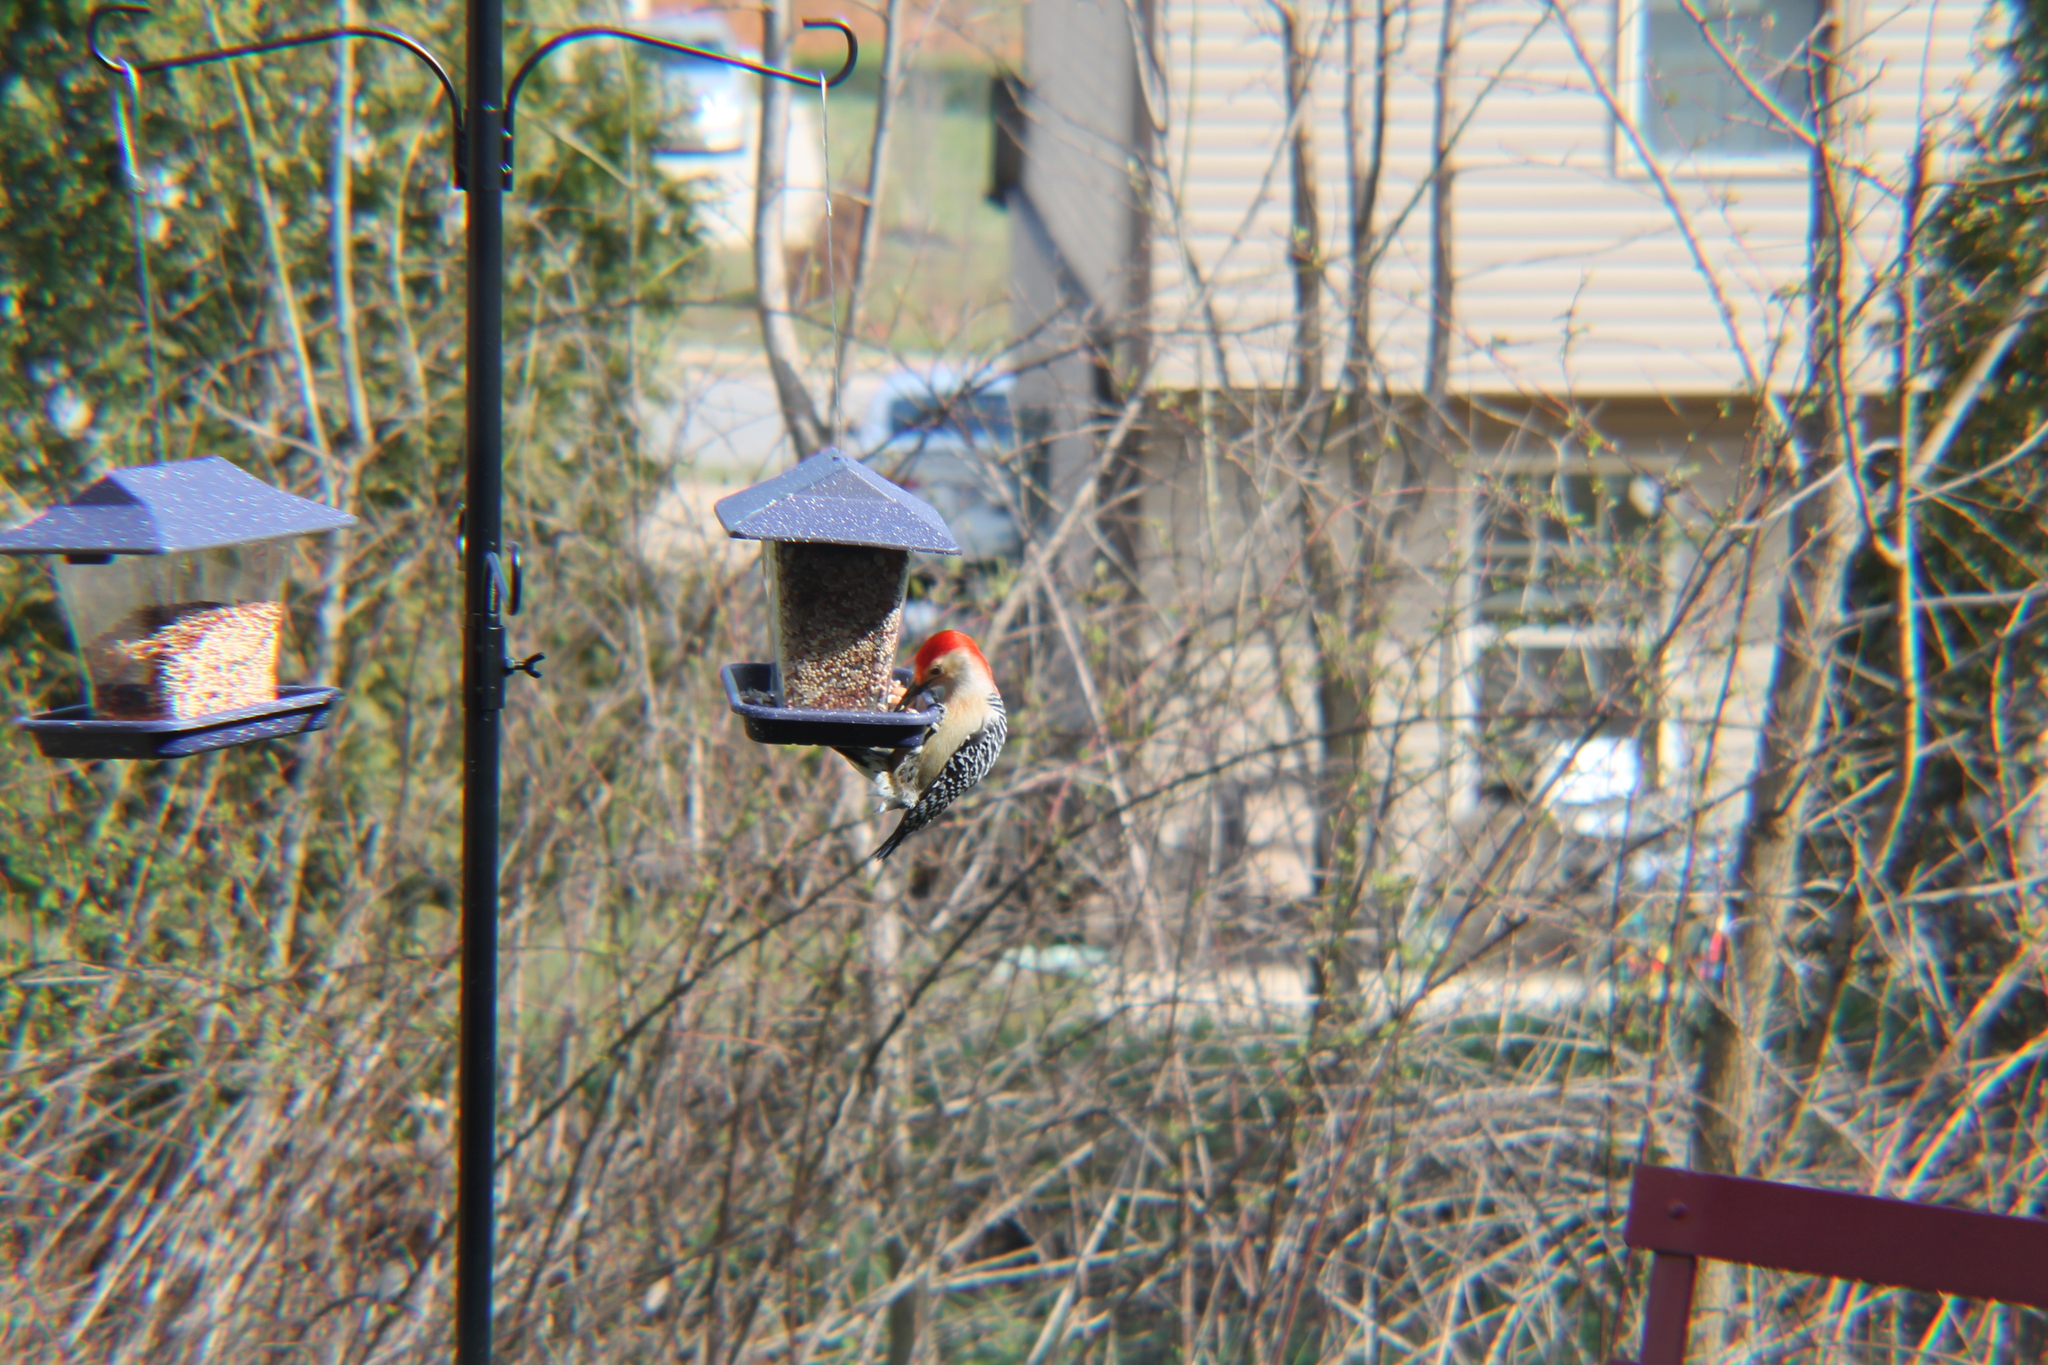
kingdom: Animalia
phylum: Chordata
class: Aves
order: Piciformes
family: Picidae
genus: Melanerpes
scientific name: Melanerpes carolinus
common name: Red-bellied woodpecker
